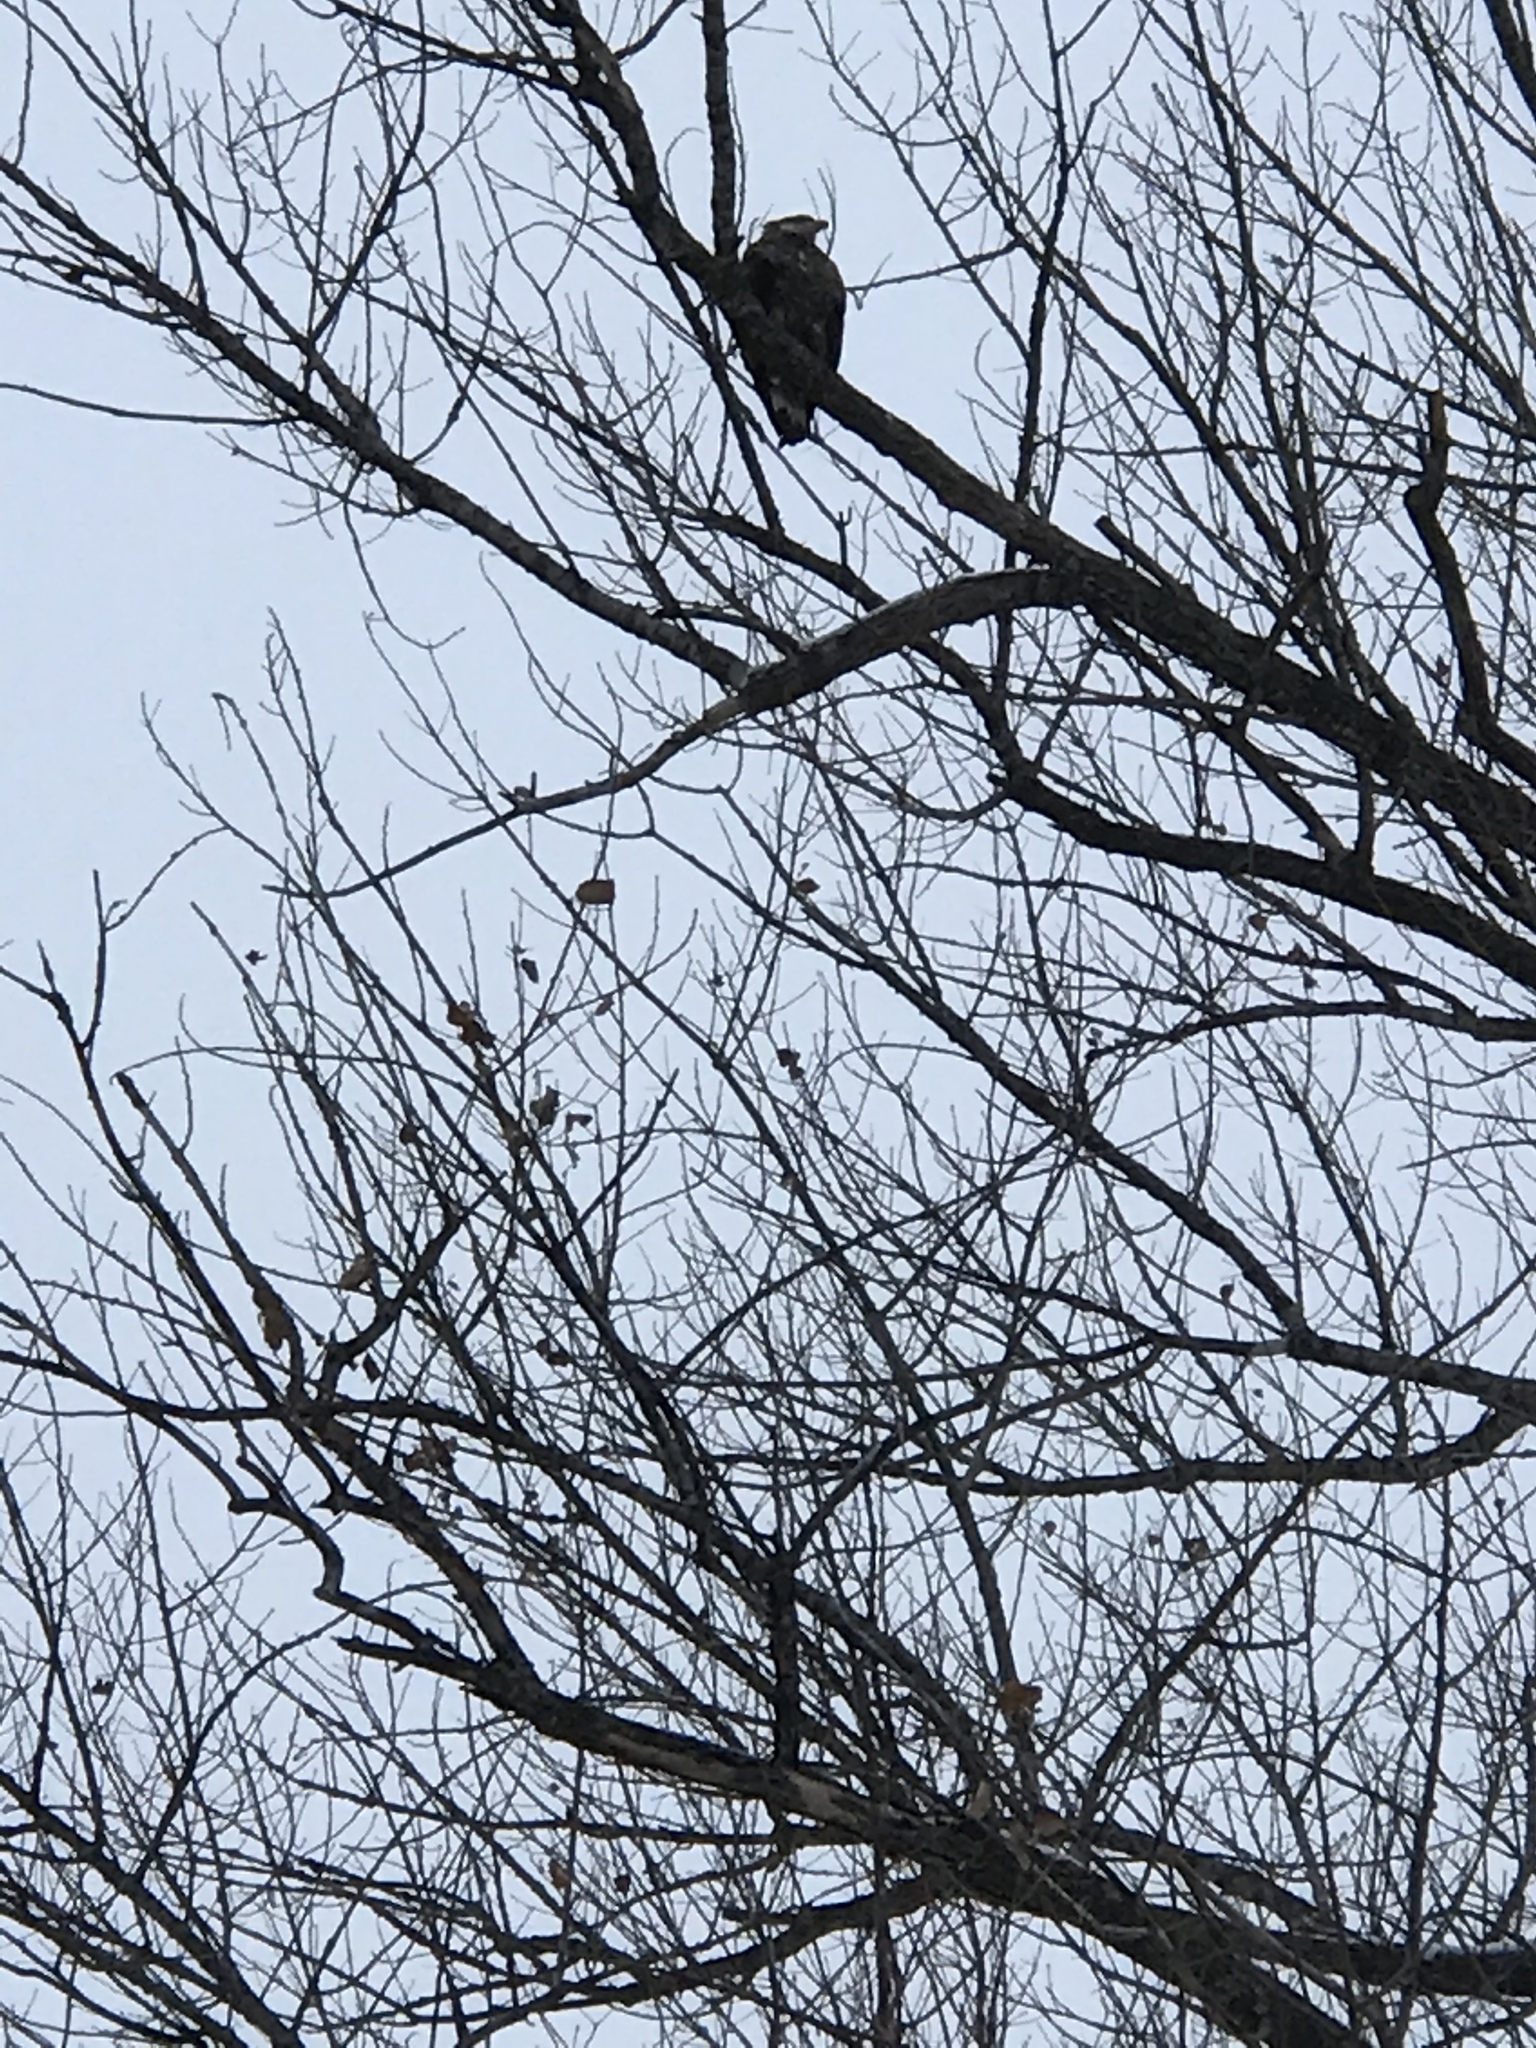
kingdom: Animalia
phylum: Chordata
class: Aves
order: Accipitriformes
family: Accipitridae
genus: Haliaeetus
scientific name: Haliaeetus leucocephalus
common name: Bald eagle
